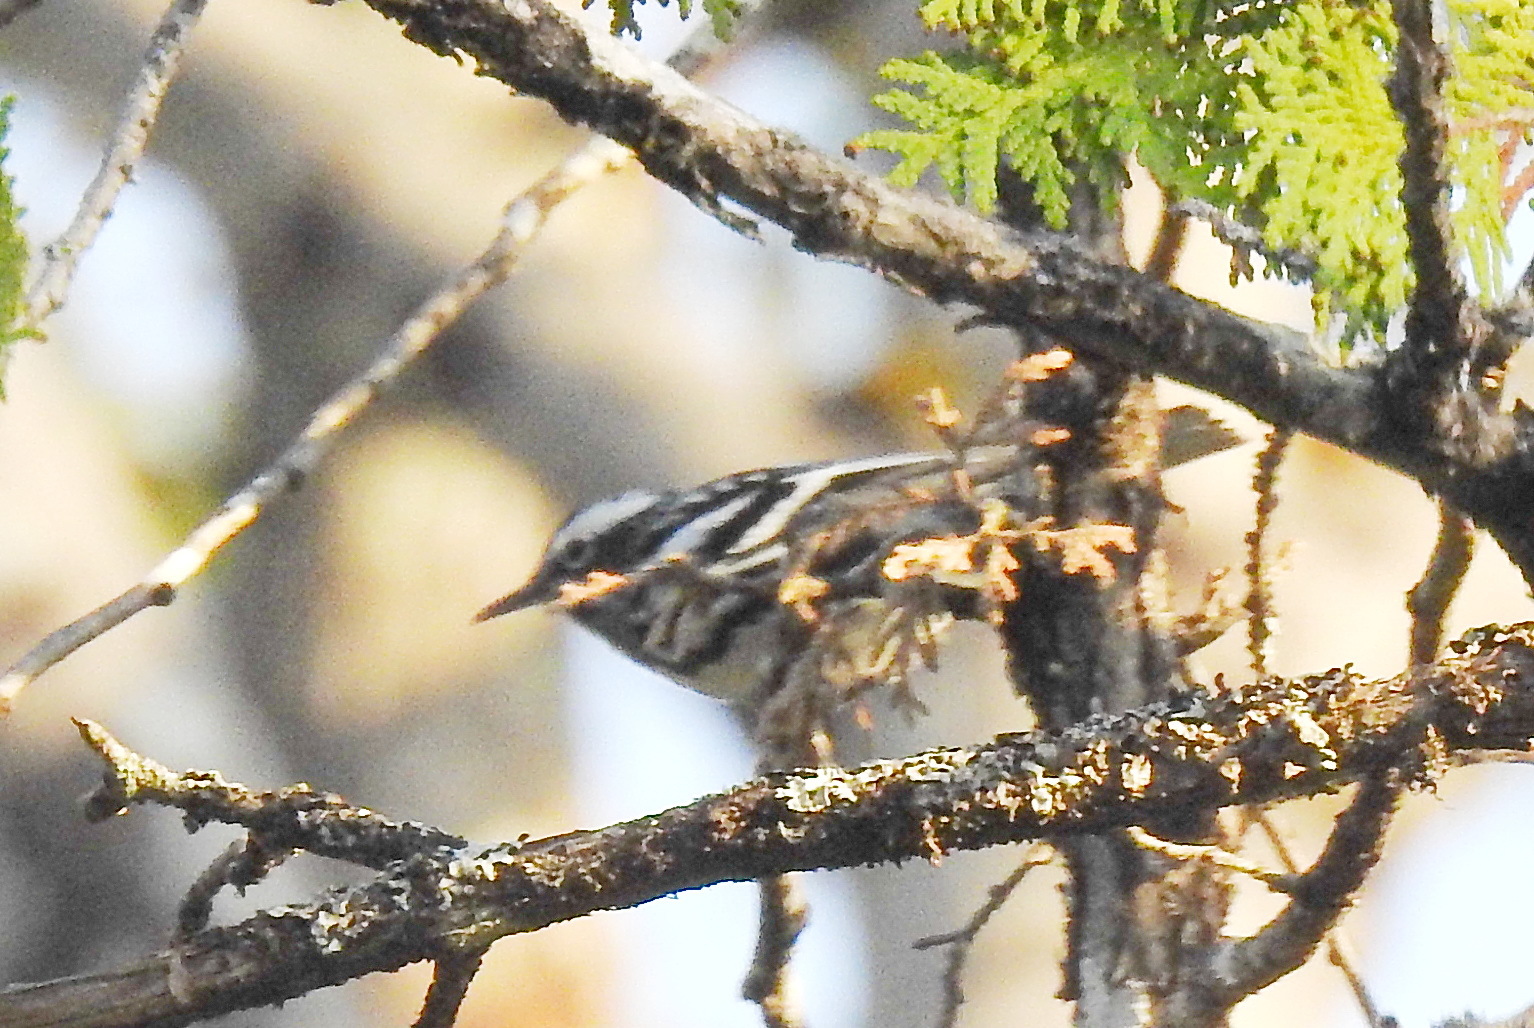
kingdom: Animalia
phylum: Chordata
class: Aves
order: Passeriformes
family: Parulidae
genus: Mniotilta
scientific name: Mniotilta varia
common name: Black-and-white warbler
